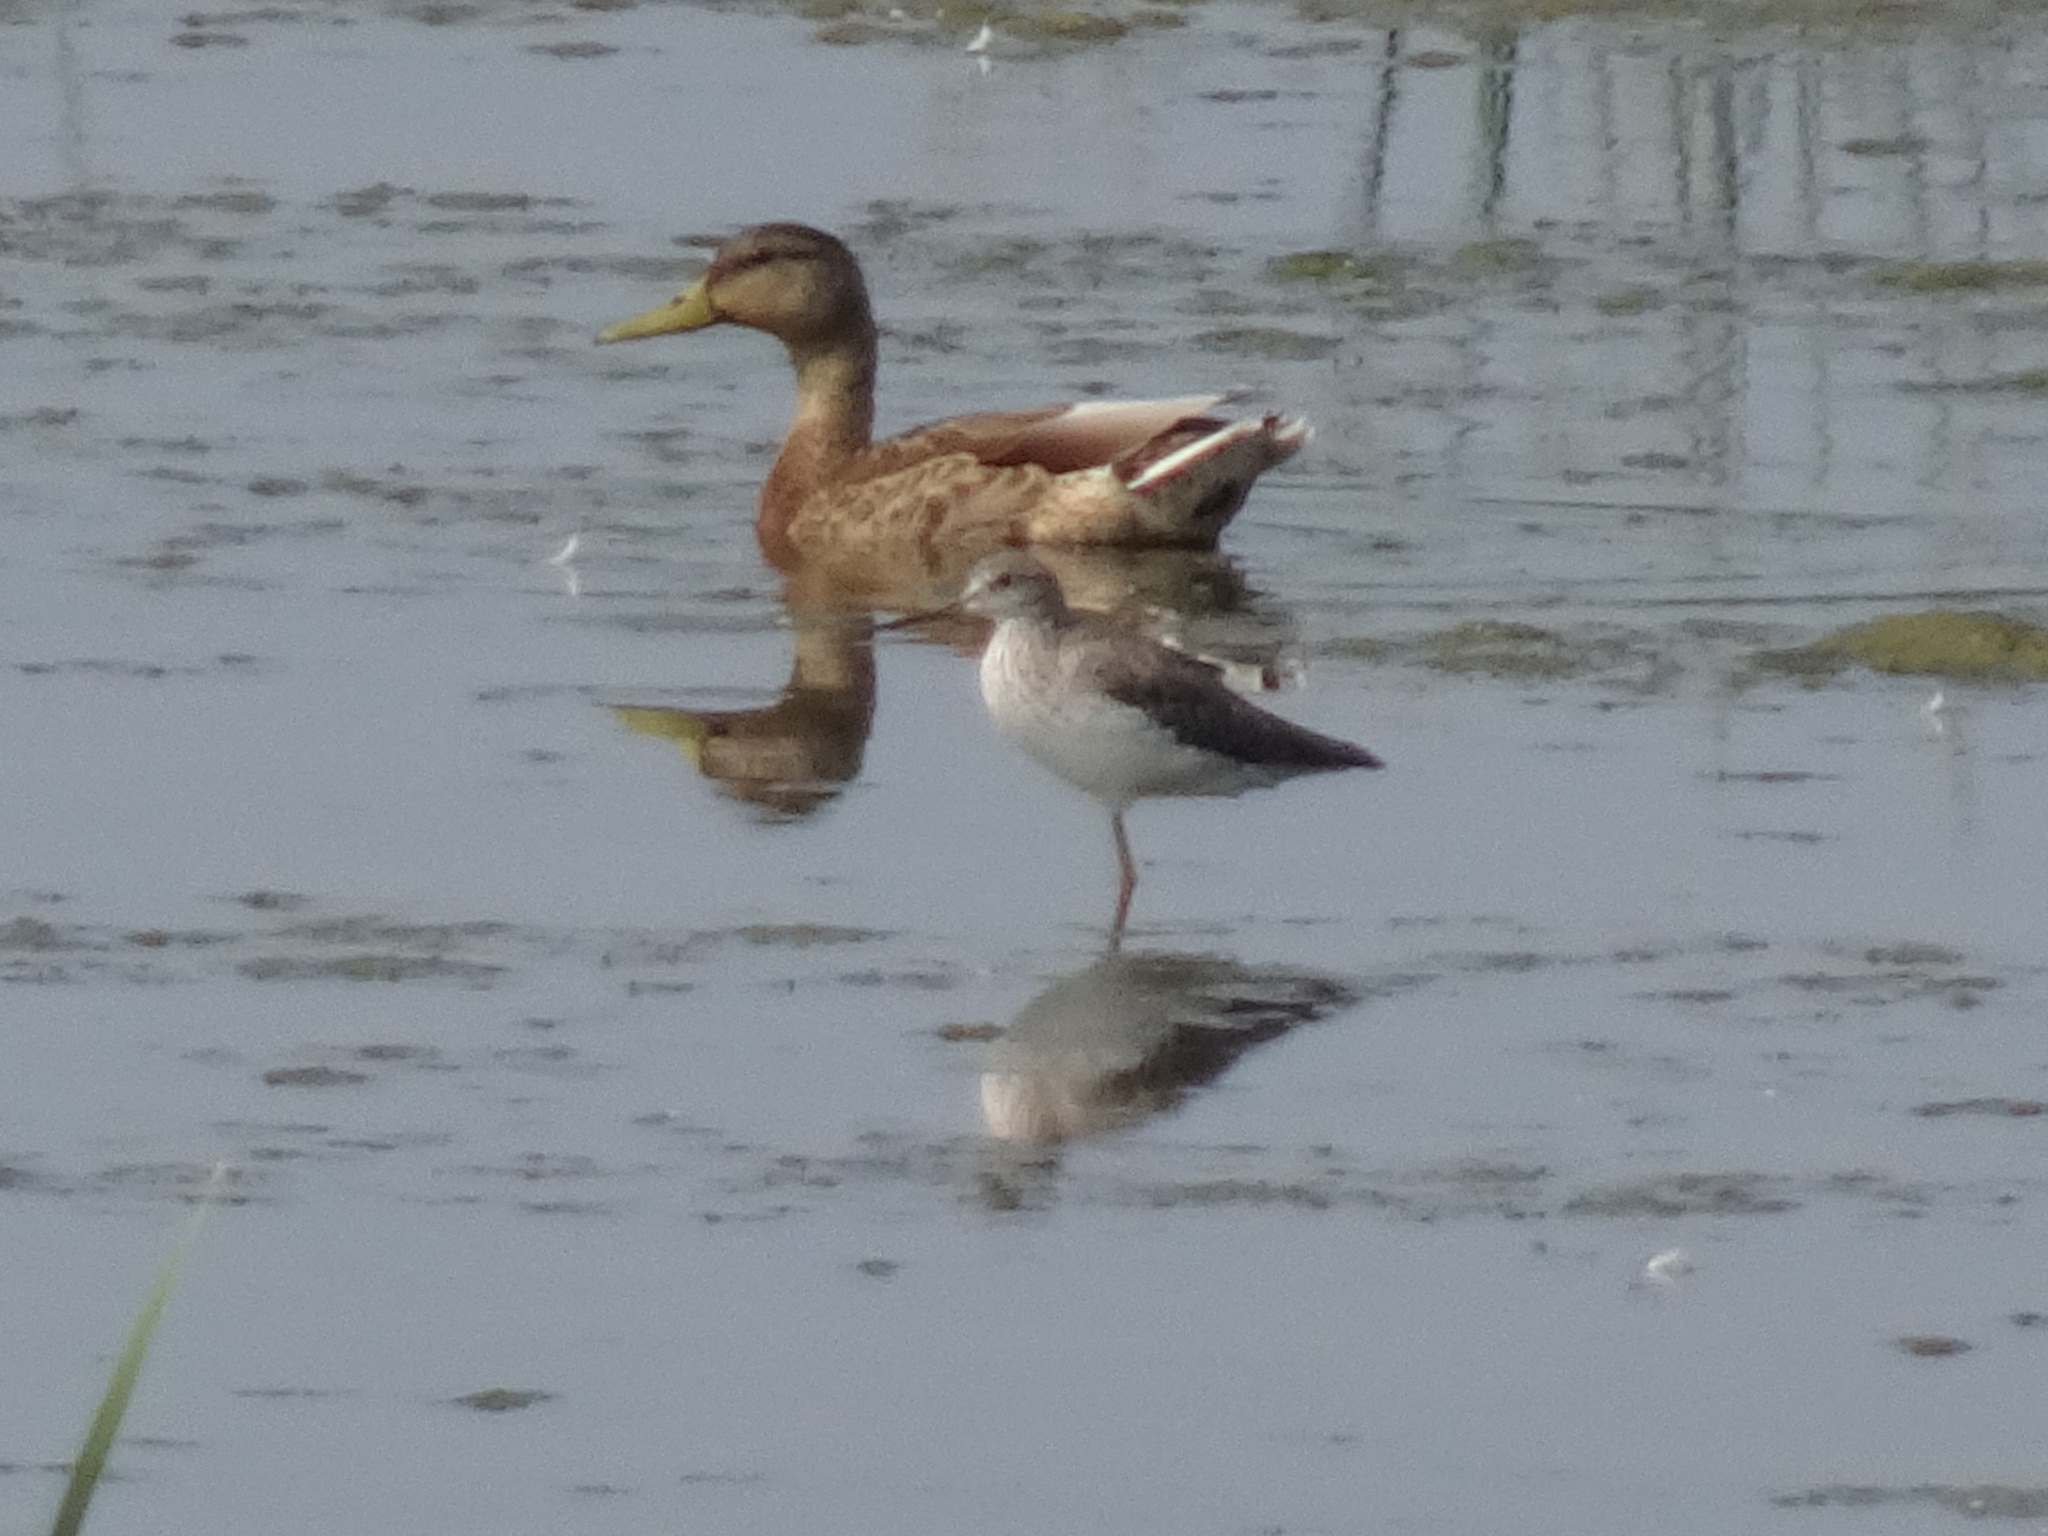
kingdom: Animalia
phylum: Chordata
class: Aves
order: Charadriiformes
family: Scolopacidae
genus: Tringa
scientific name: Tringa melanoleuca
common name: Greater yellowlegs
